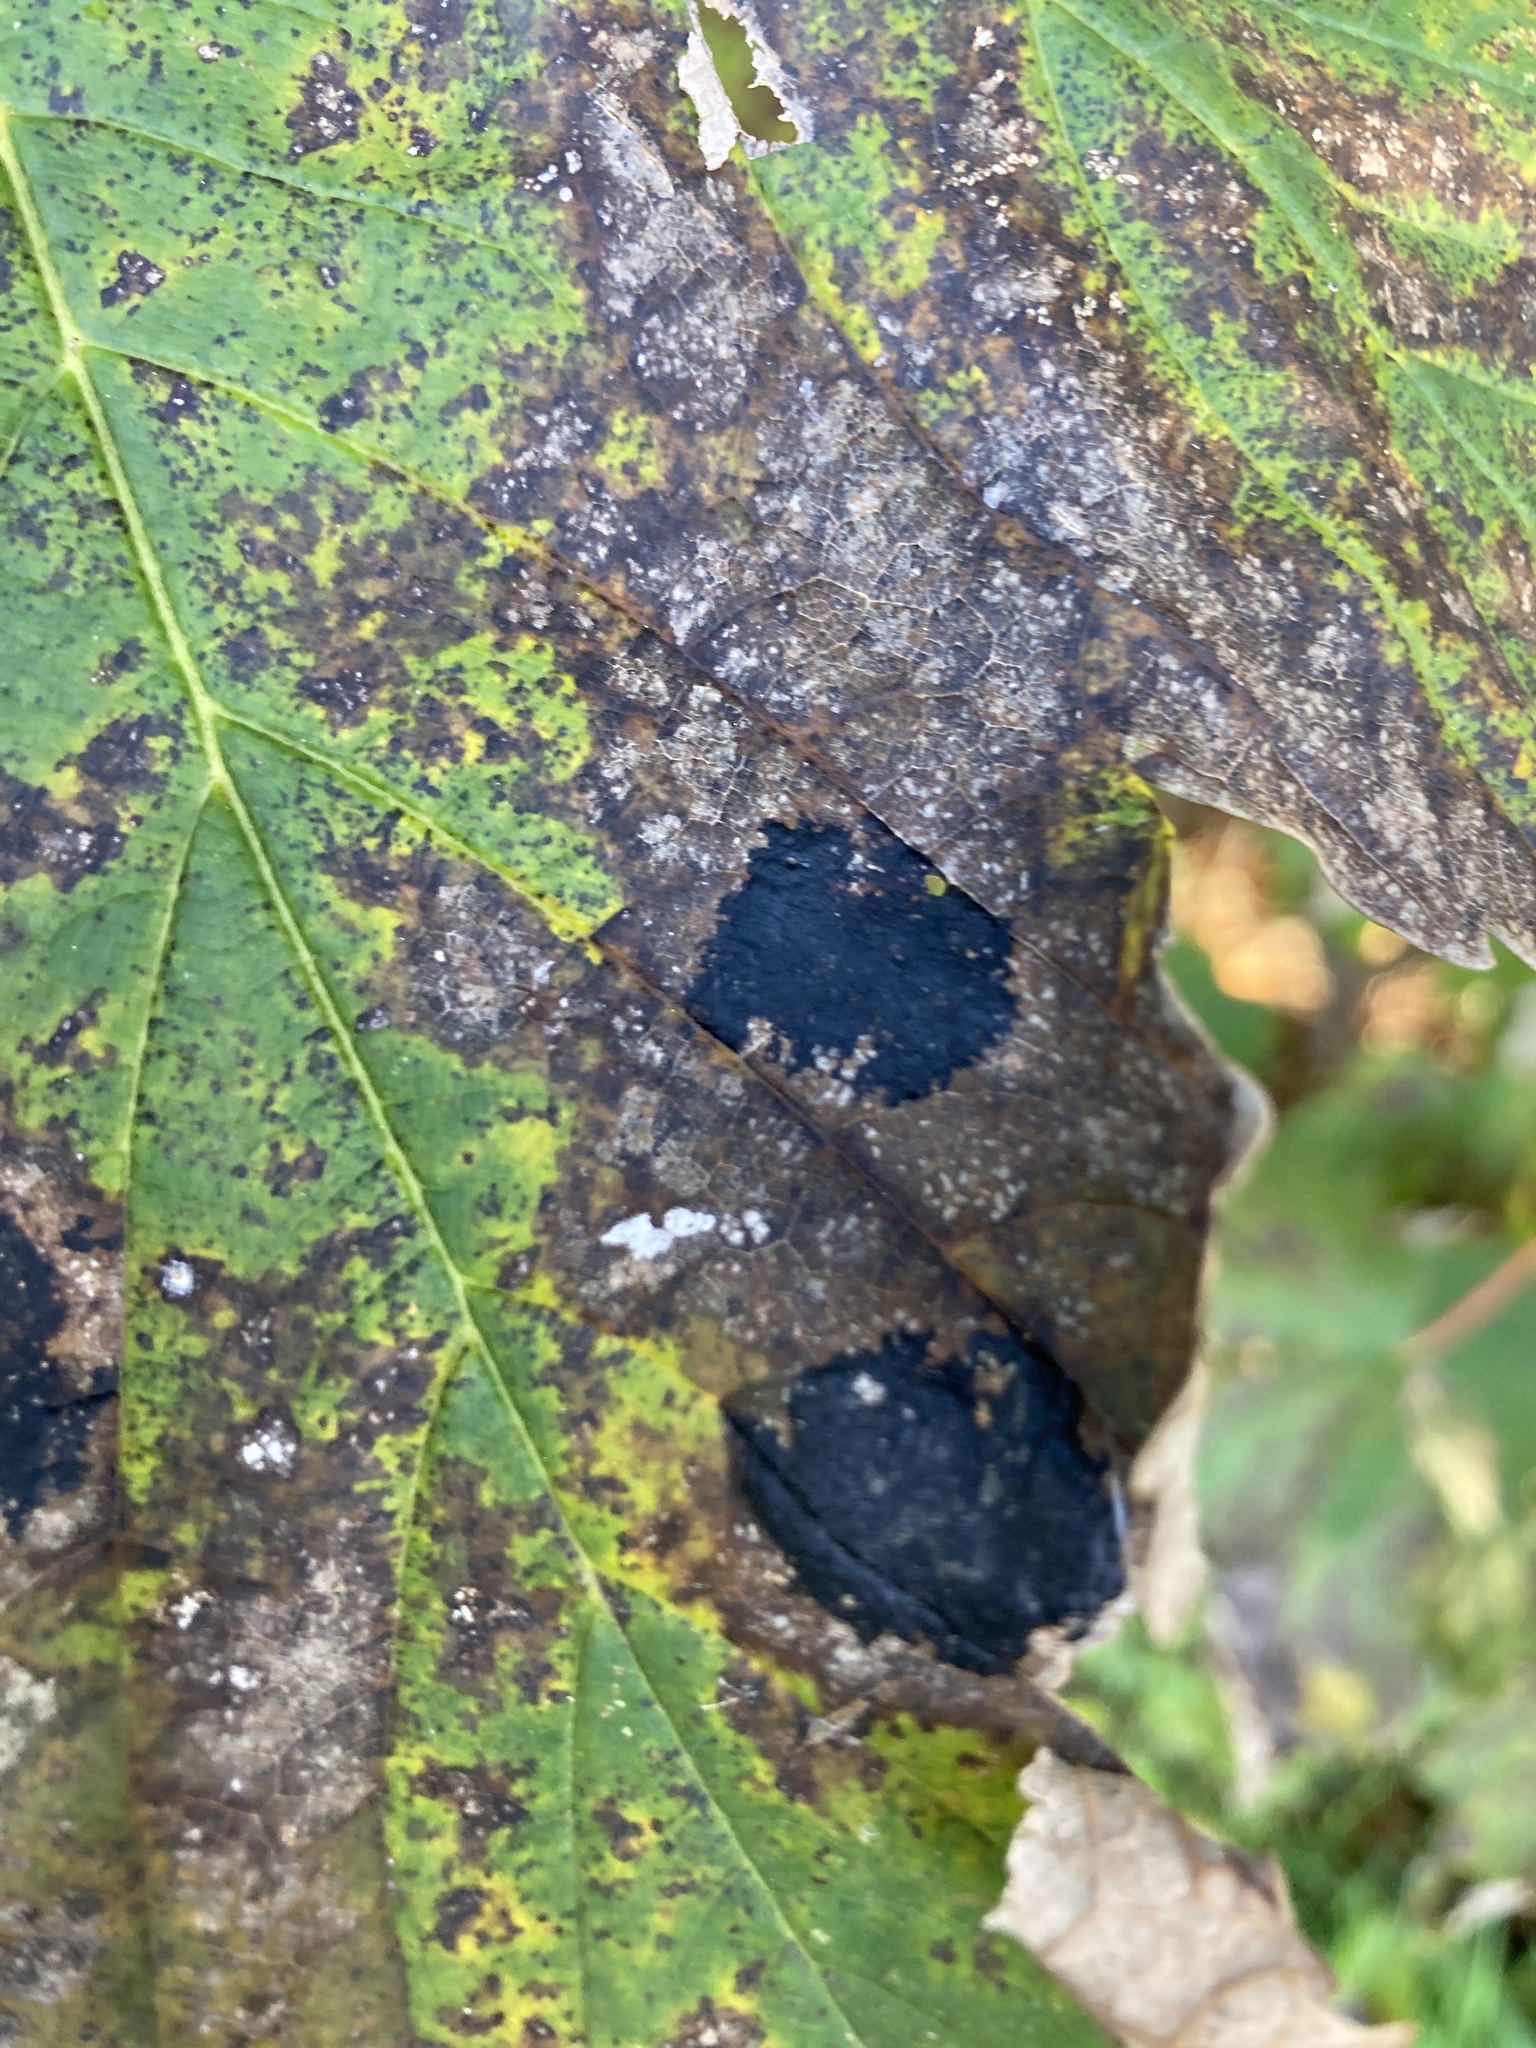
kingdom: Fungi
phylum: Ascomycota
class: Leotiomycetes
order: Rhytismatales
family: Rhytismataceae
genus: Rhytisma
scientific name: Rhytisma acerinum
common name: European tar spot
